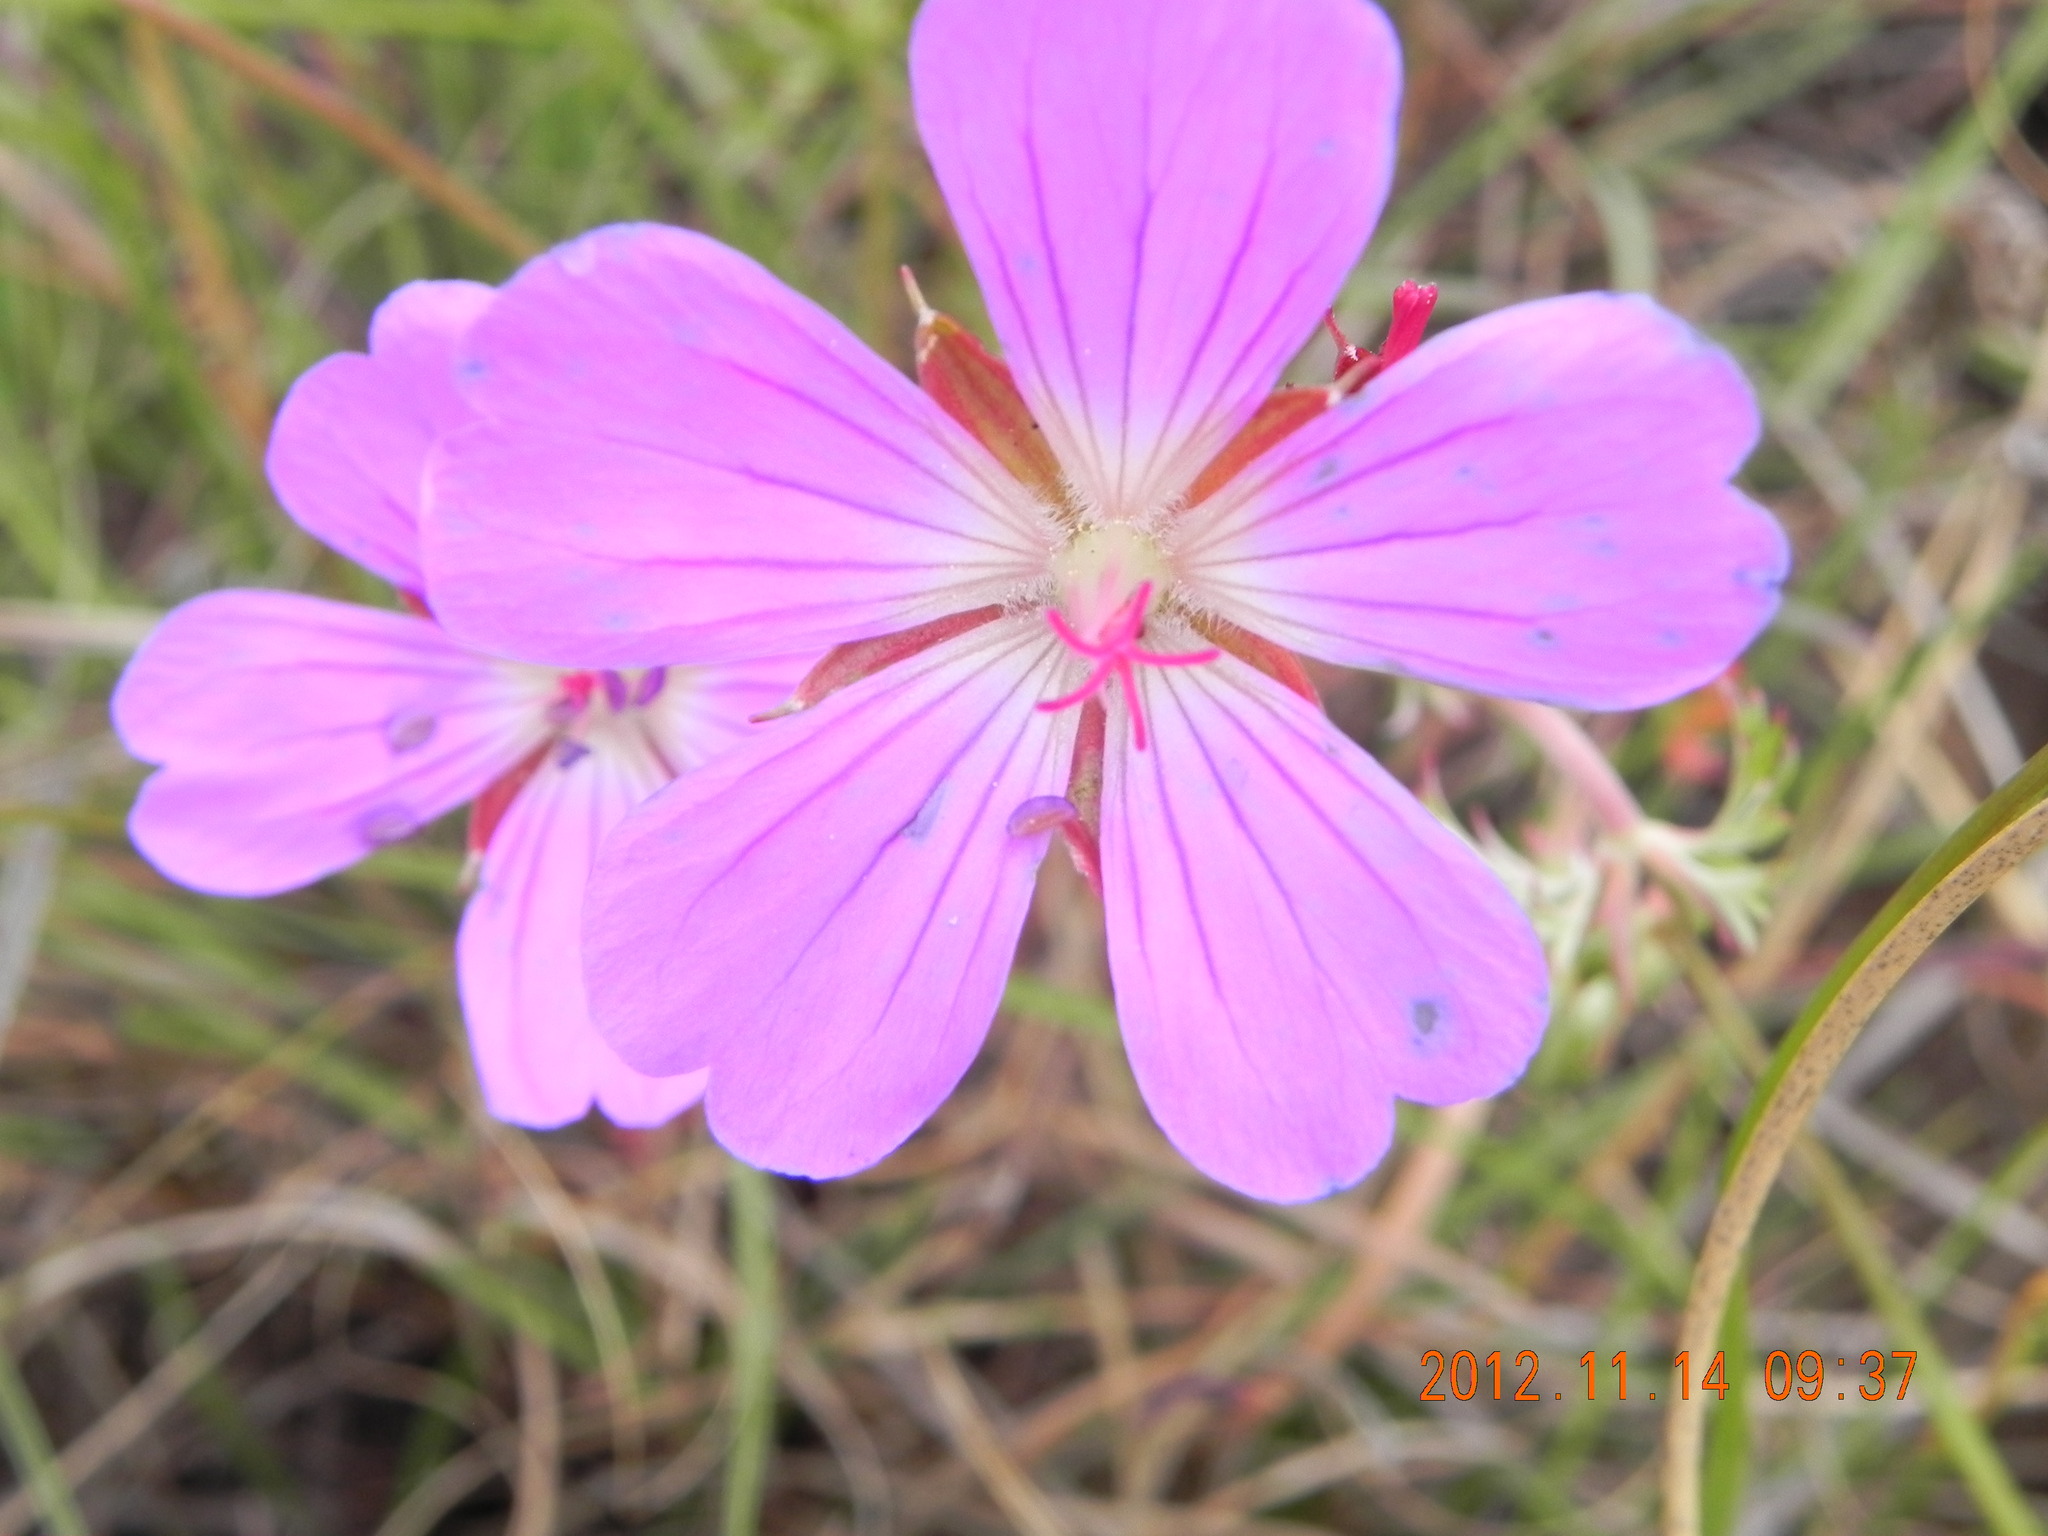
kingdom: Plantae
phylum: Tracheophyta
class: Magnoliopsida
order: Geraniales
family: Geraniaceae
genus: Geranium
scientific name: Geranium multisectum
